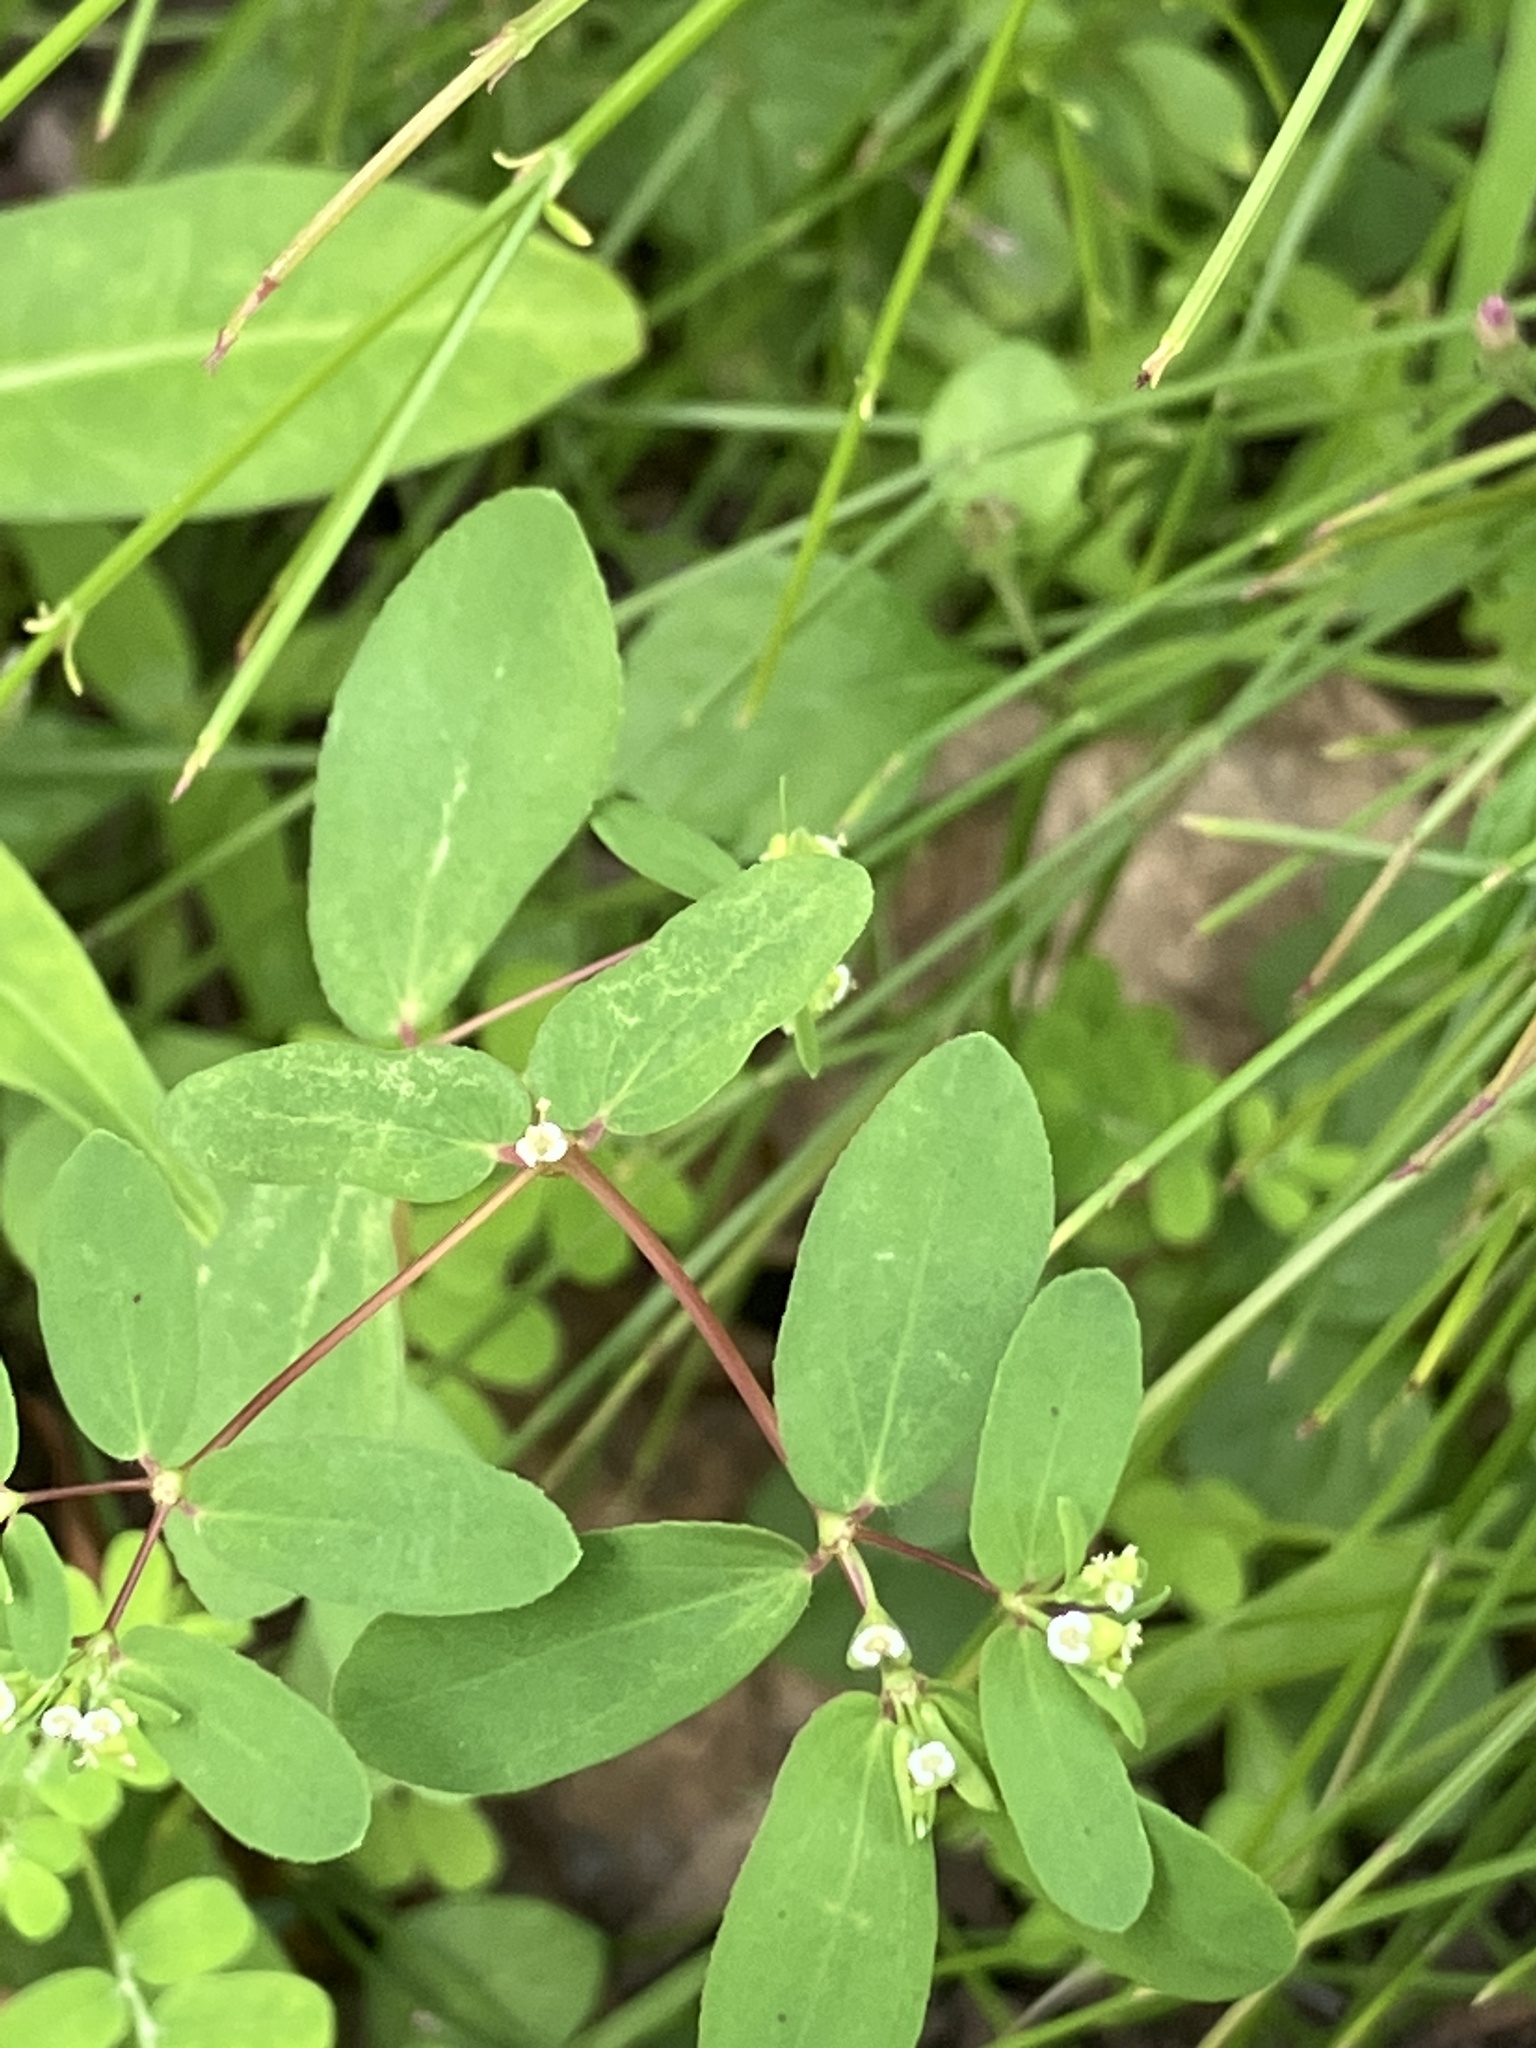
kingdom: Plantae
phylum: Tracheophyta
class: Magnoliopsida
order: Malpighiales
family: Euphorbiaceae
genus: Euphorbia
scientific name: Euphorbia hyssopifolia
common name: Hyssopleaf sandmat
